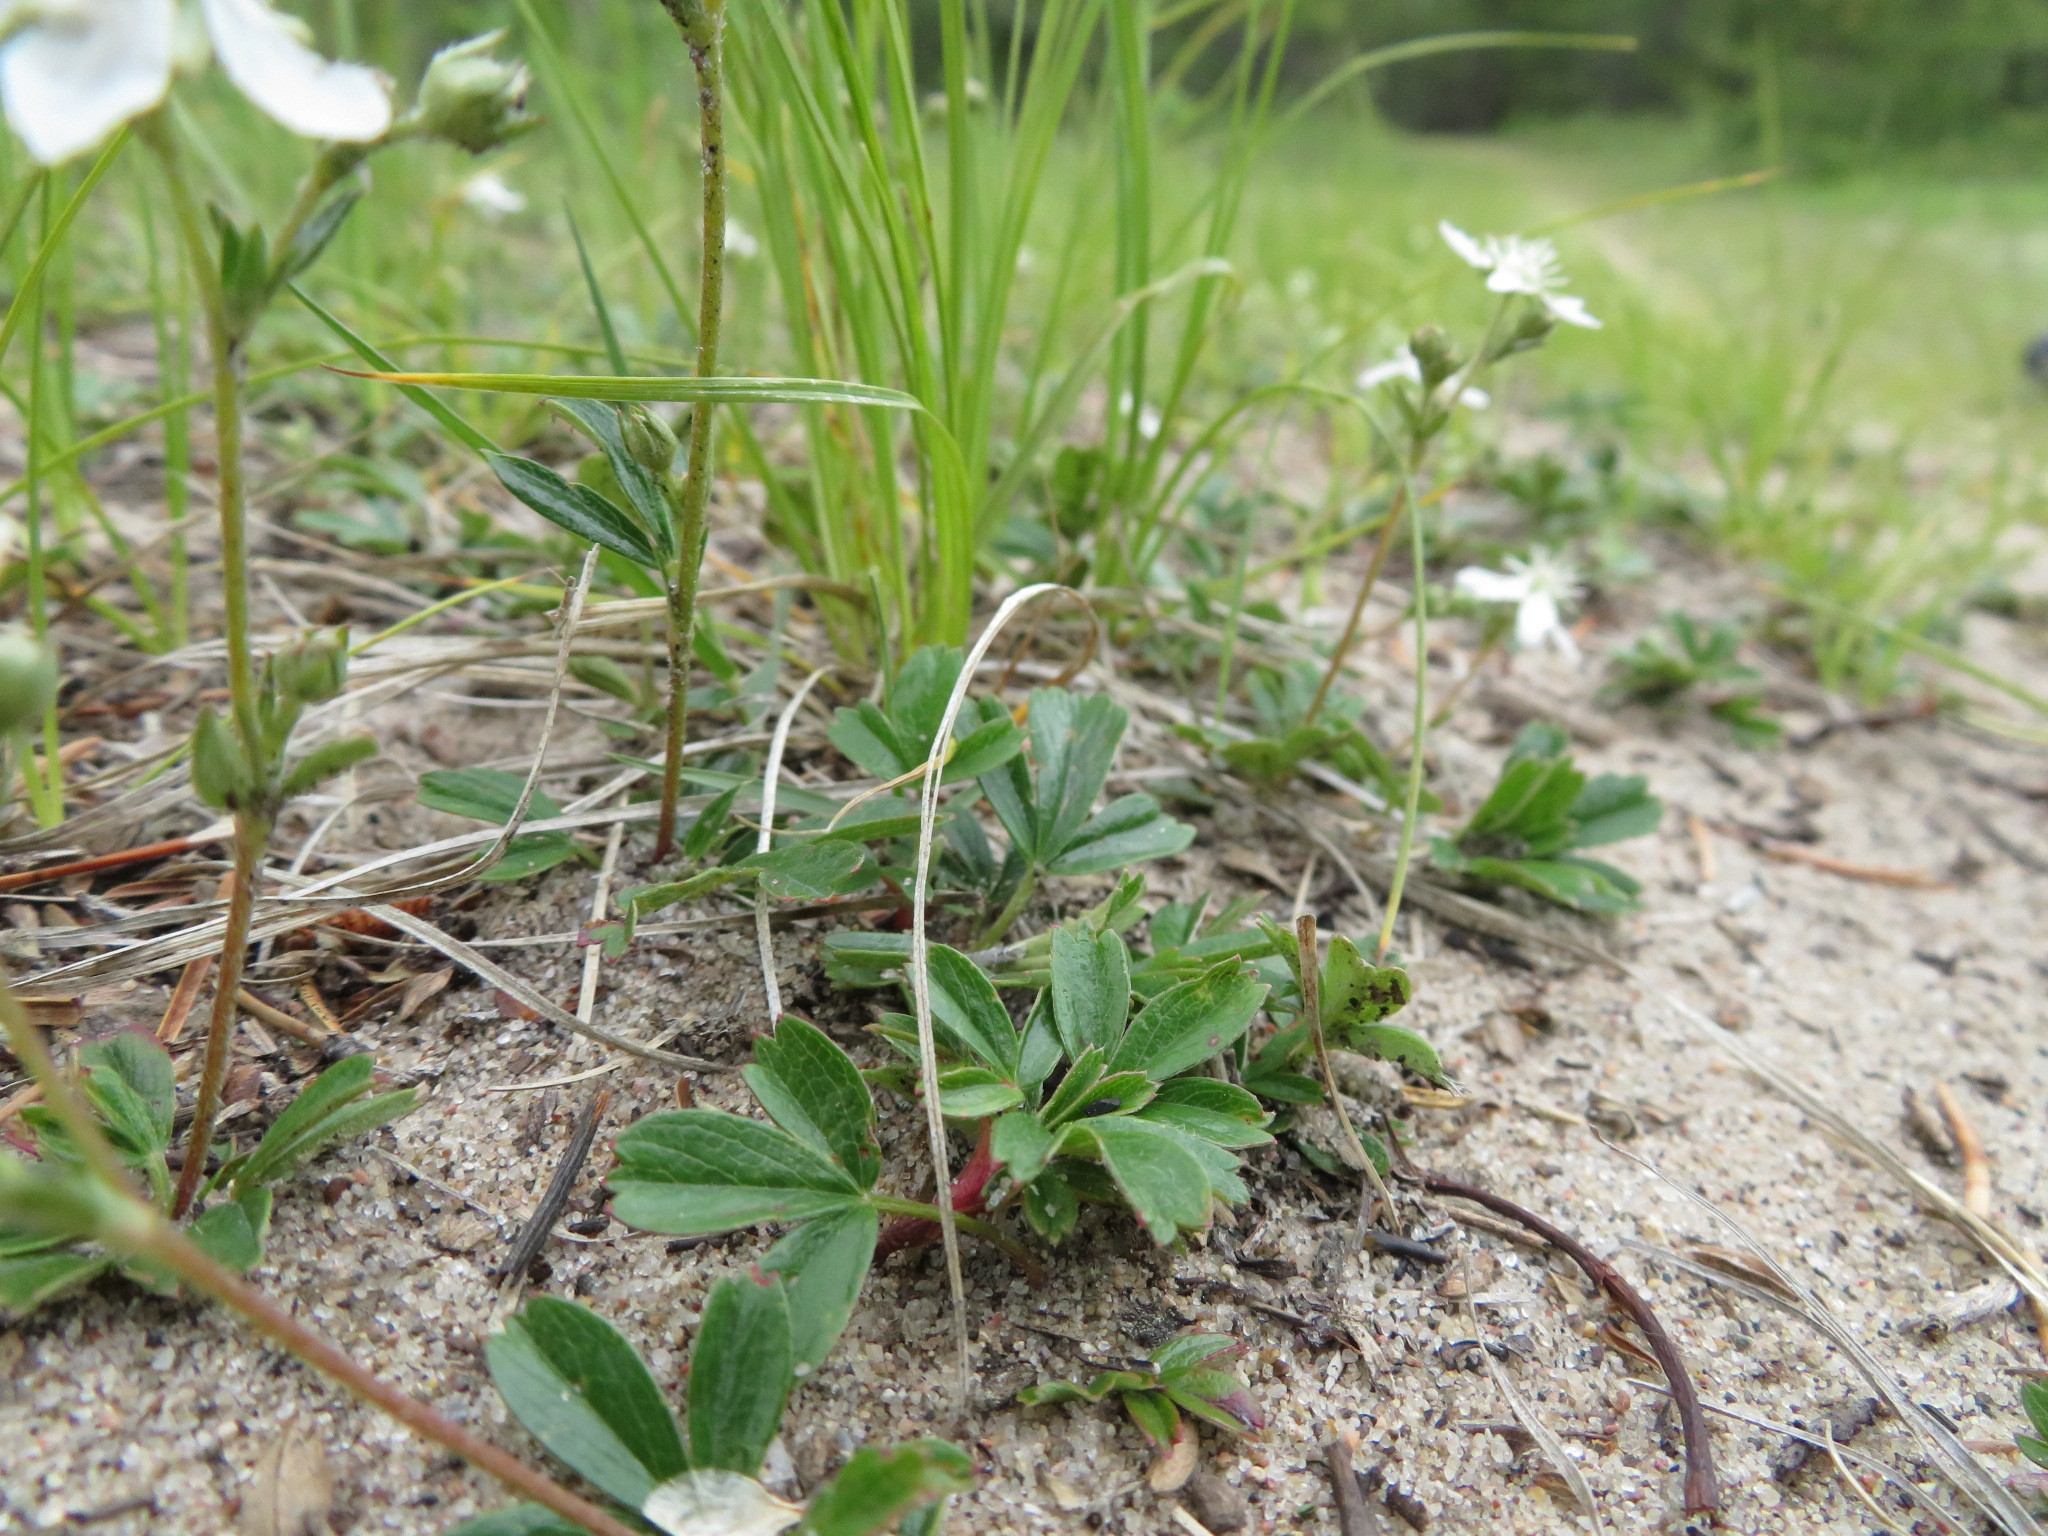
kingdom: Plantae
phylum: Tracheophyta
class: Magnoliopsida
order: Rosales
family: Rosaceae
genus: Sibbaldia
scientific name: Sibbaldia tridentata
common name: Three-toothed cinquefoil
